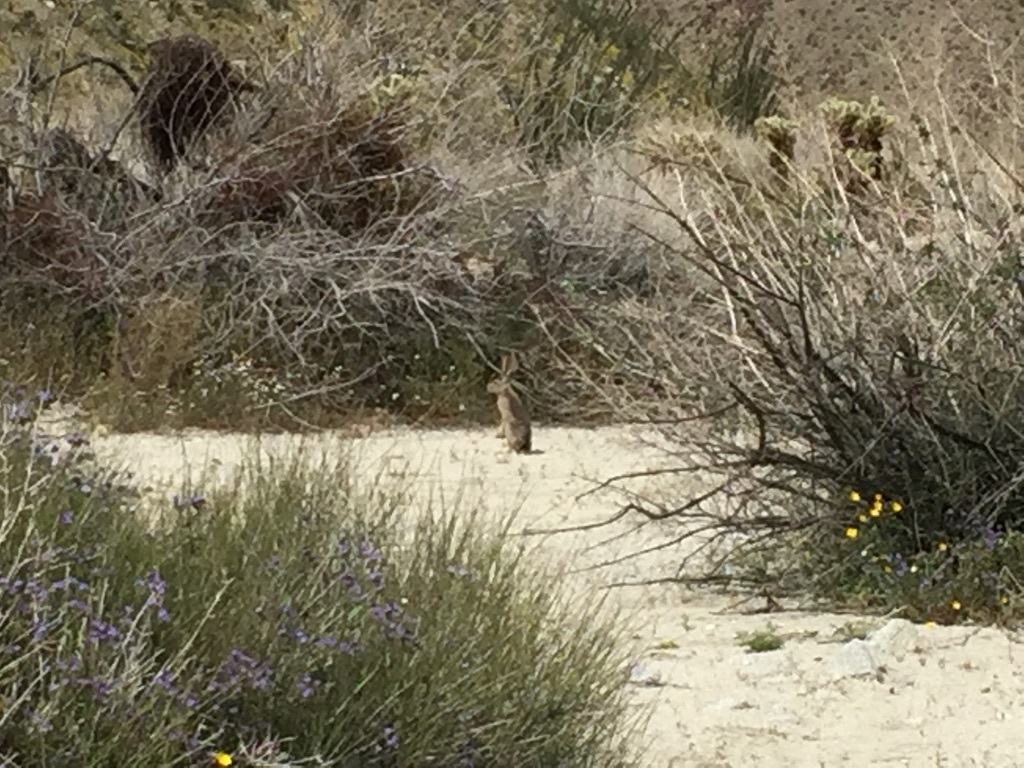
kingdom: Animalia
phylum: Chordata
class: Mammalia
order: Lagomorpha
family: Leporidae
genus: Lepus
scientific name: Lepus californicus
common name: Black-tailed jackrabbit
